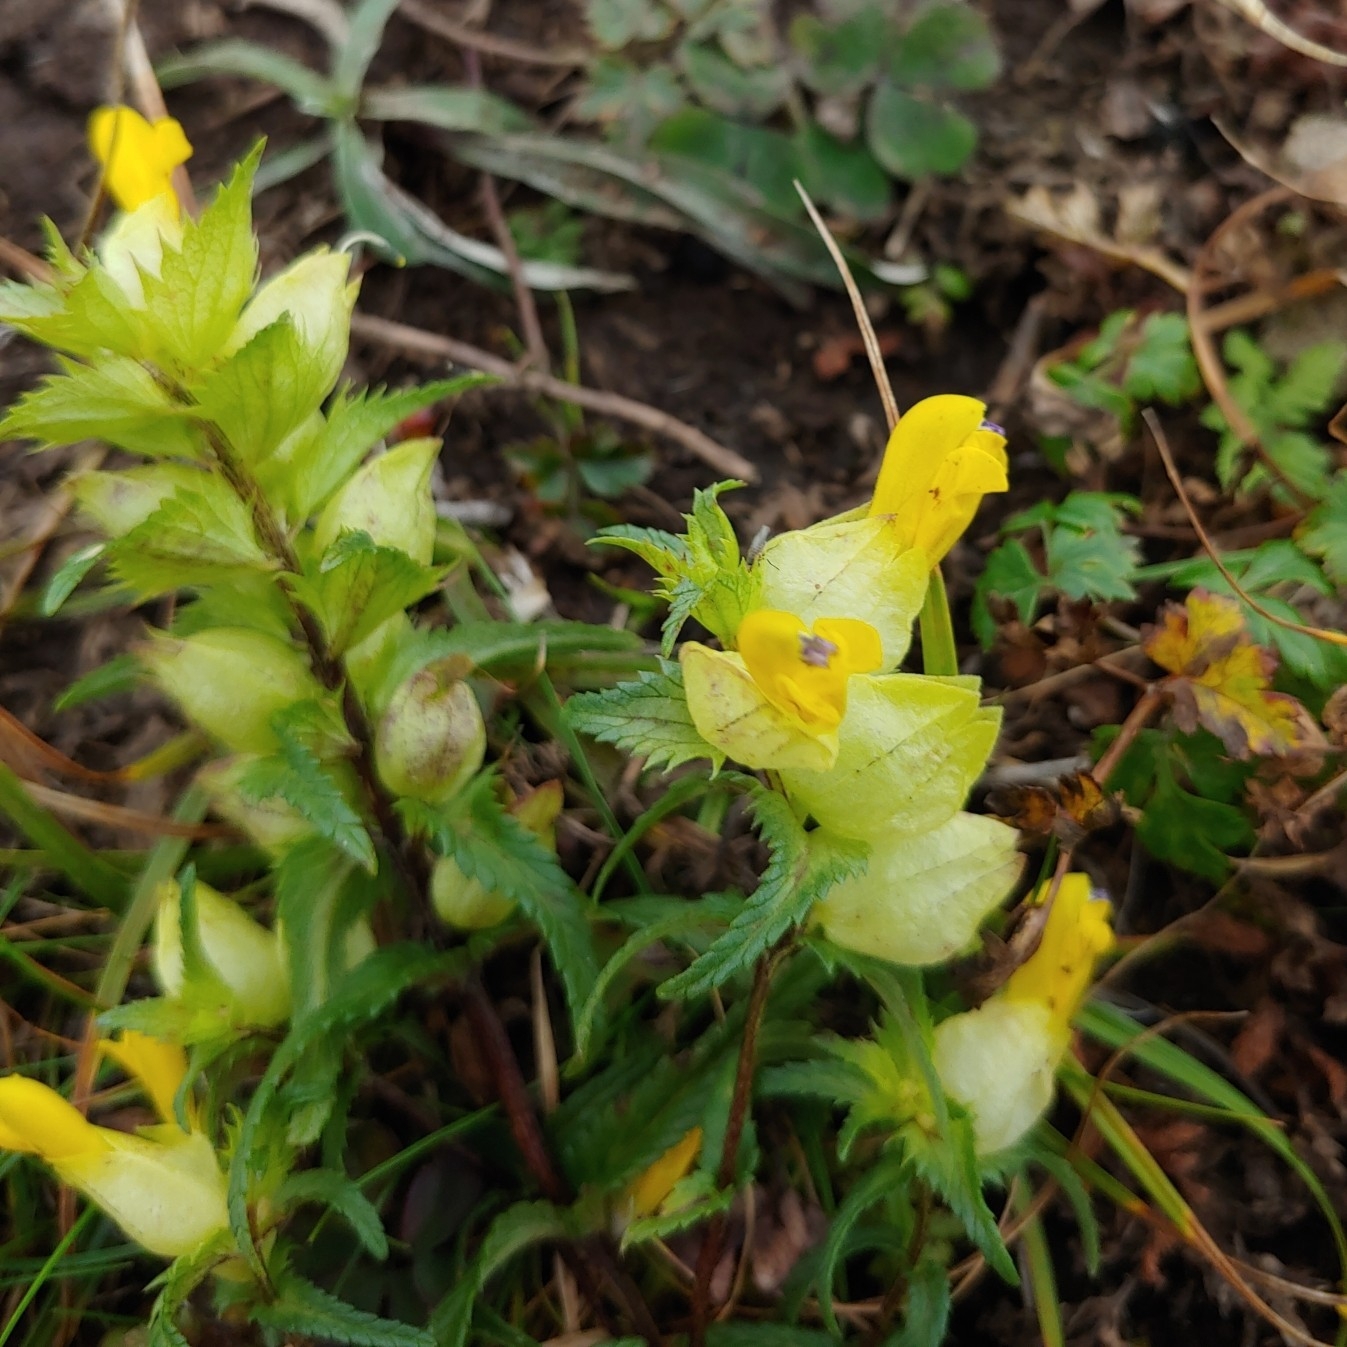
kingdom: Plantae
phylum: Tracheophyta
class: Magnoliopsida
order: Lamiales
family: Orobanchaceae
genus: Rhinanthus
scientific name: Rhinanthus minor
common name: Yellow-rattle
